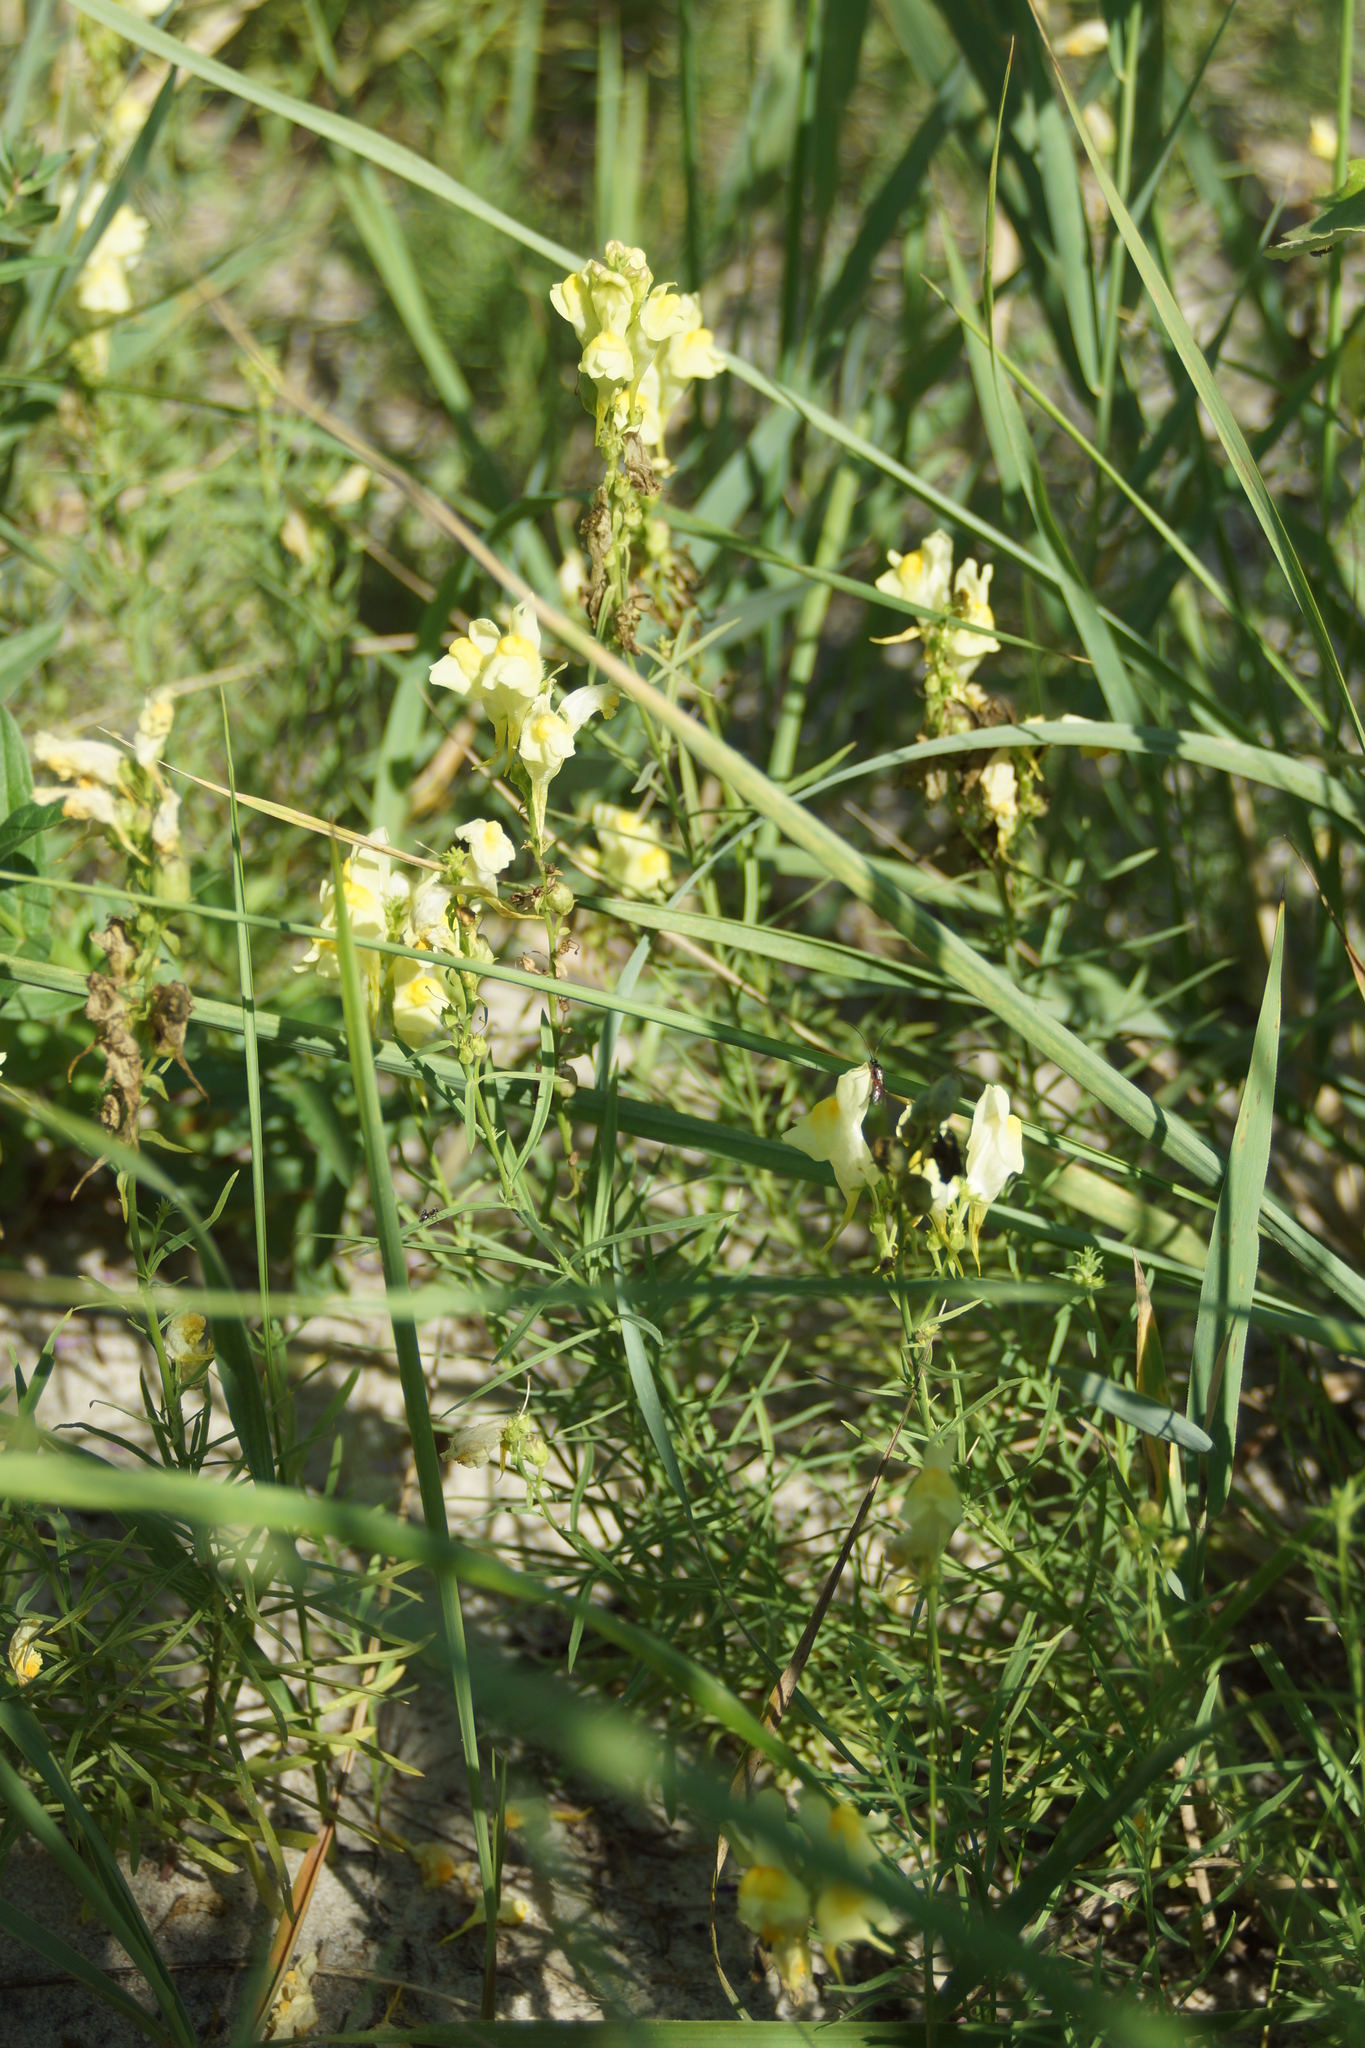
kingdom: Plantae
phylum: Tracheophyta
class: Magnoliopsida
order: Lamiales
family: Plantaginaceae
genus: Linaria
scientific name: Linaria vulgaris
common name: Butter and eggs
